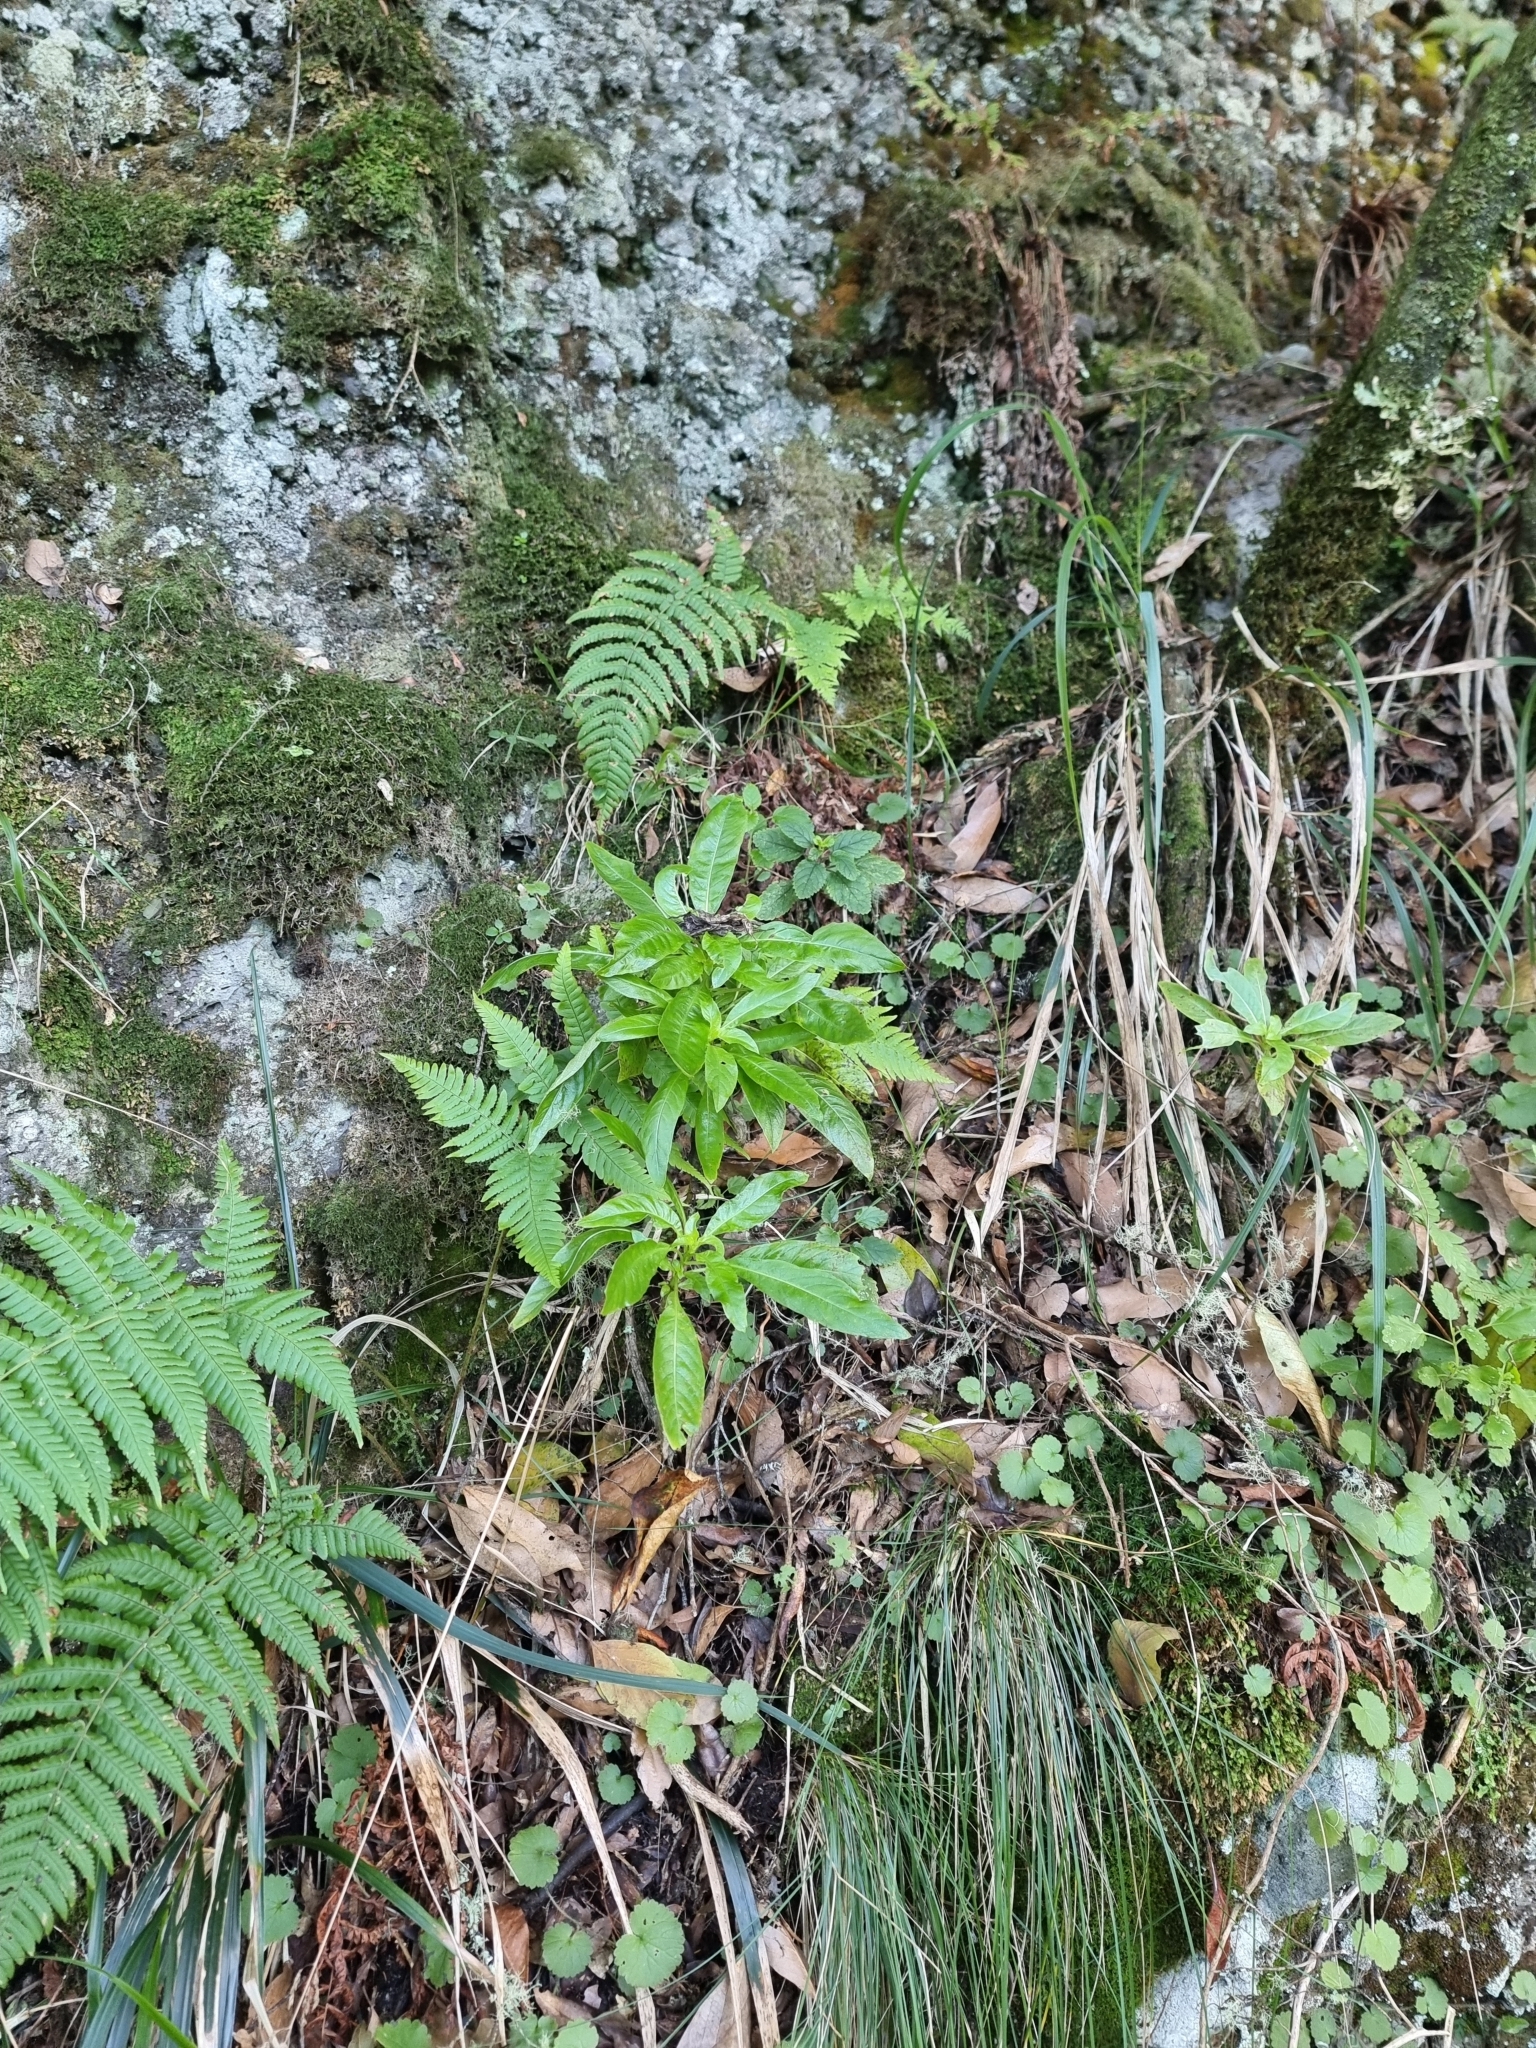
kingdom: Plantae
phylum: Tracheophyta
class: Magnoliopsida
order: Gentianales
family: Rubiaceae
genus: Phyllis
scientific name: Phyllis nobla
